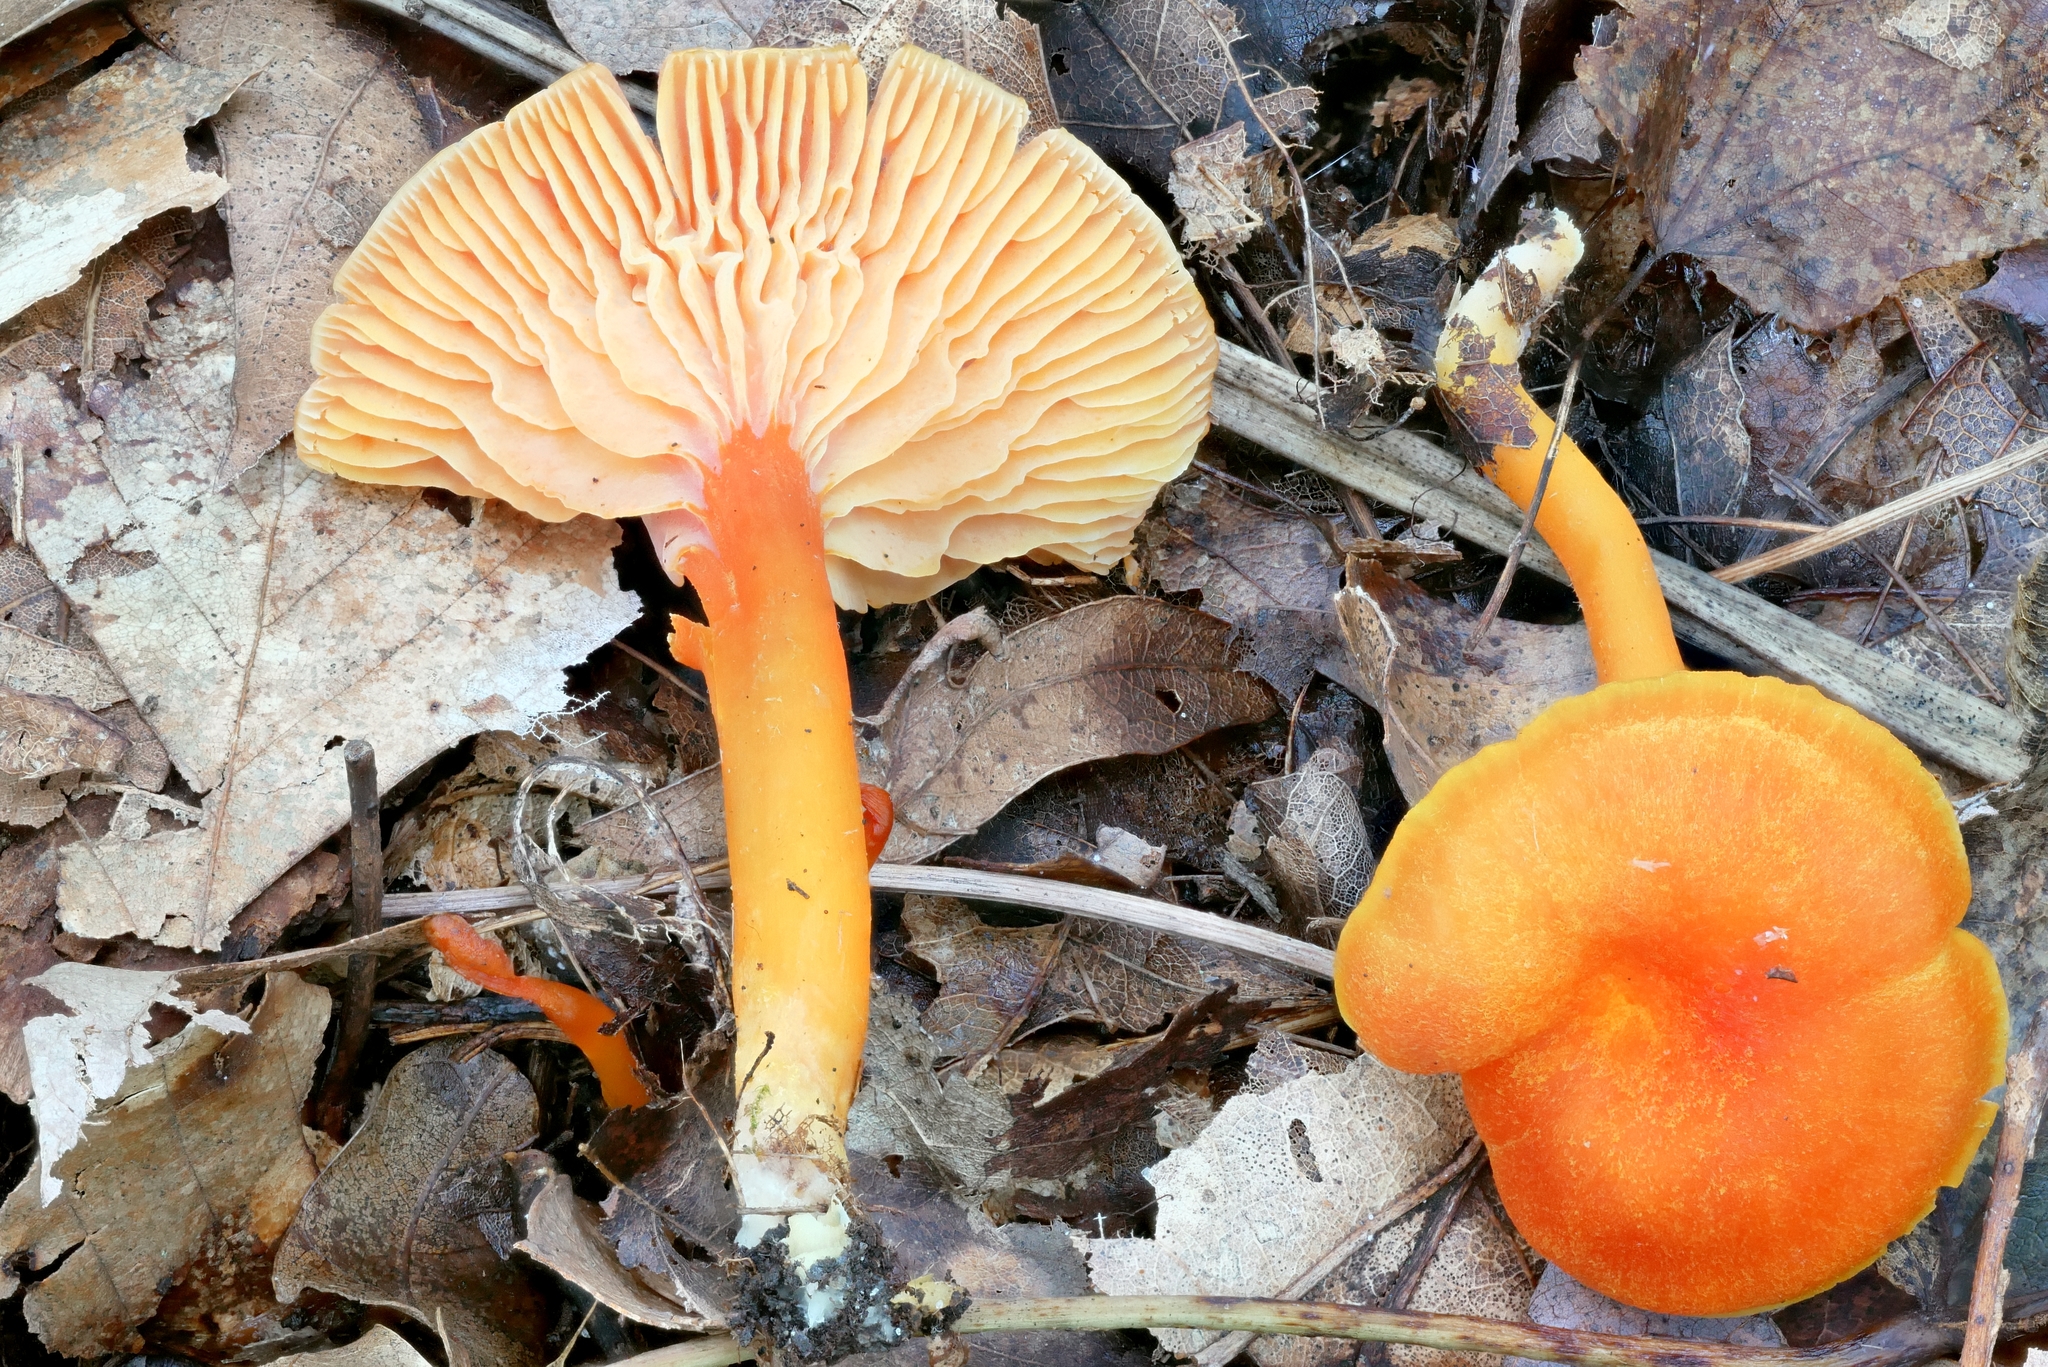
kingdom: Fungi
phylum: Basidiomycota
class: Agaricomycetes
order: Agaricales
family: Hygrophoraceae
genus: Hygrocybe
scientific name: Hygrocybe miniata
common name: Vermilion waxcap
